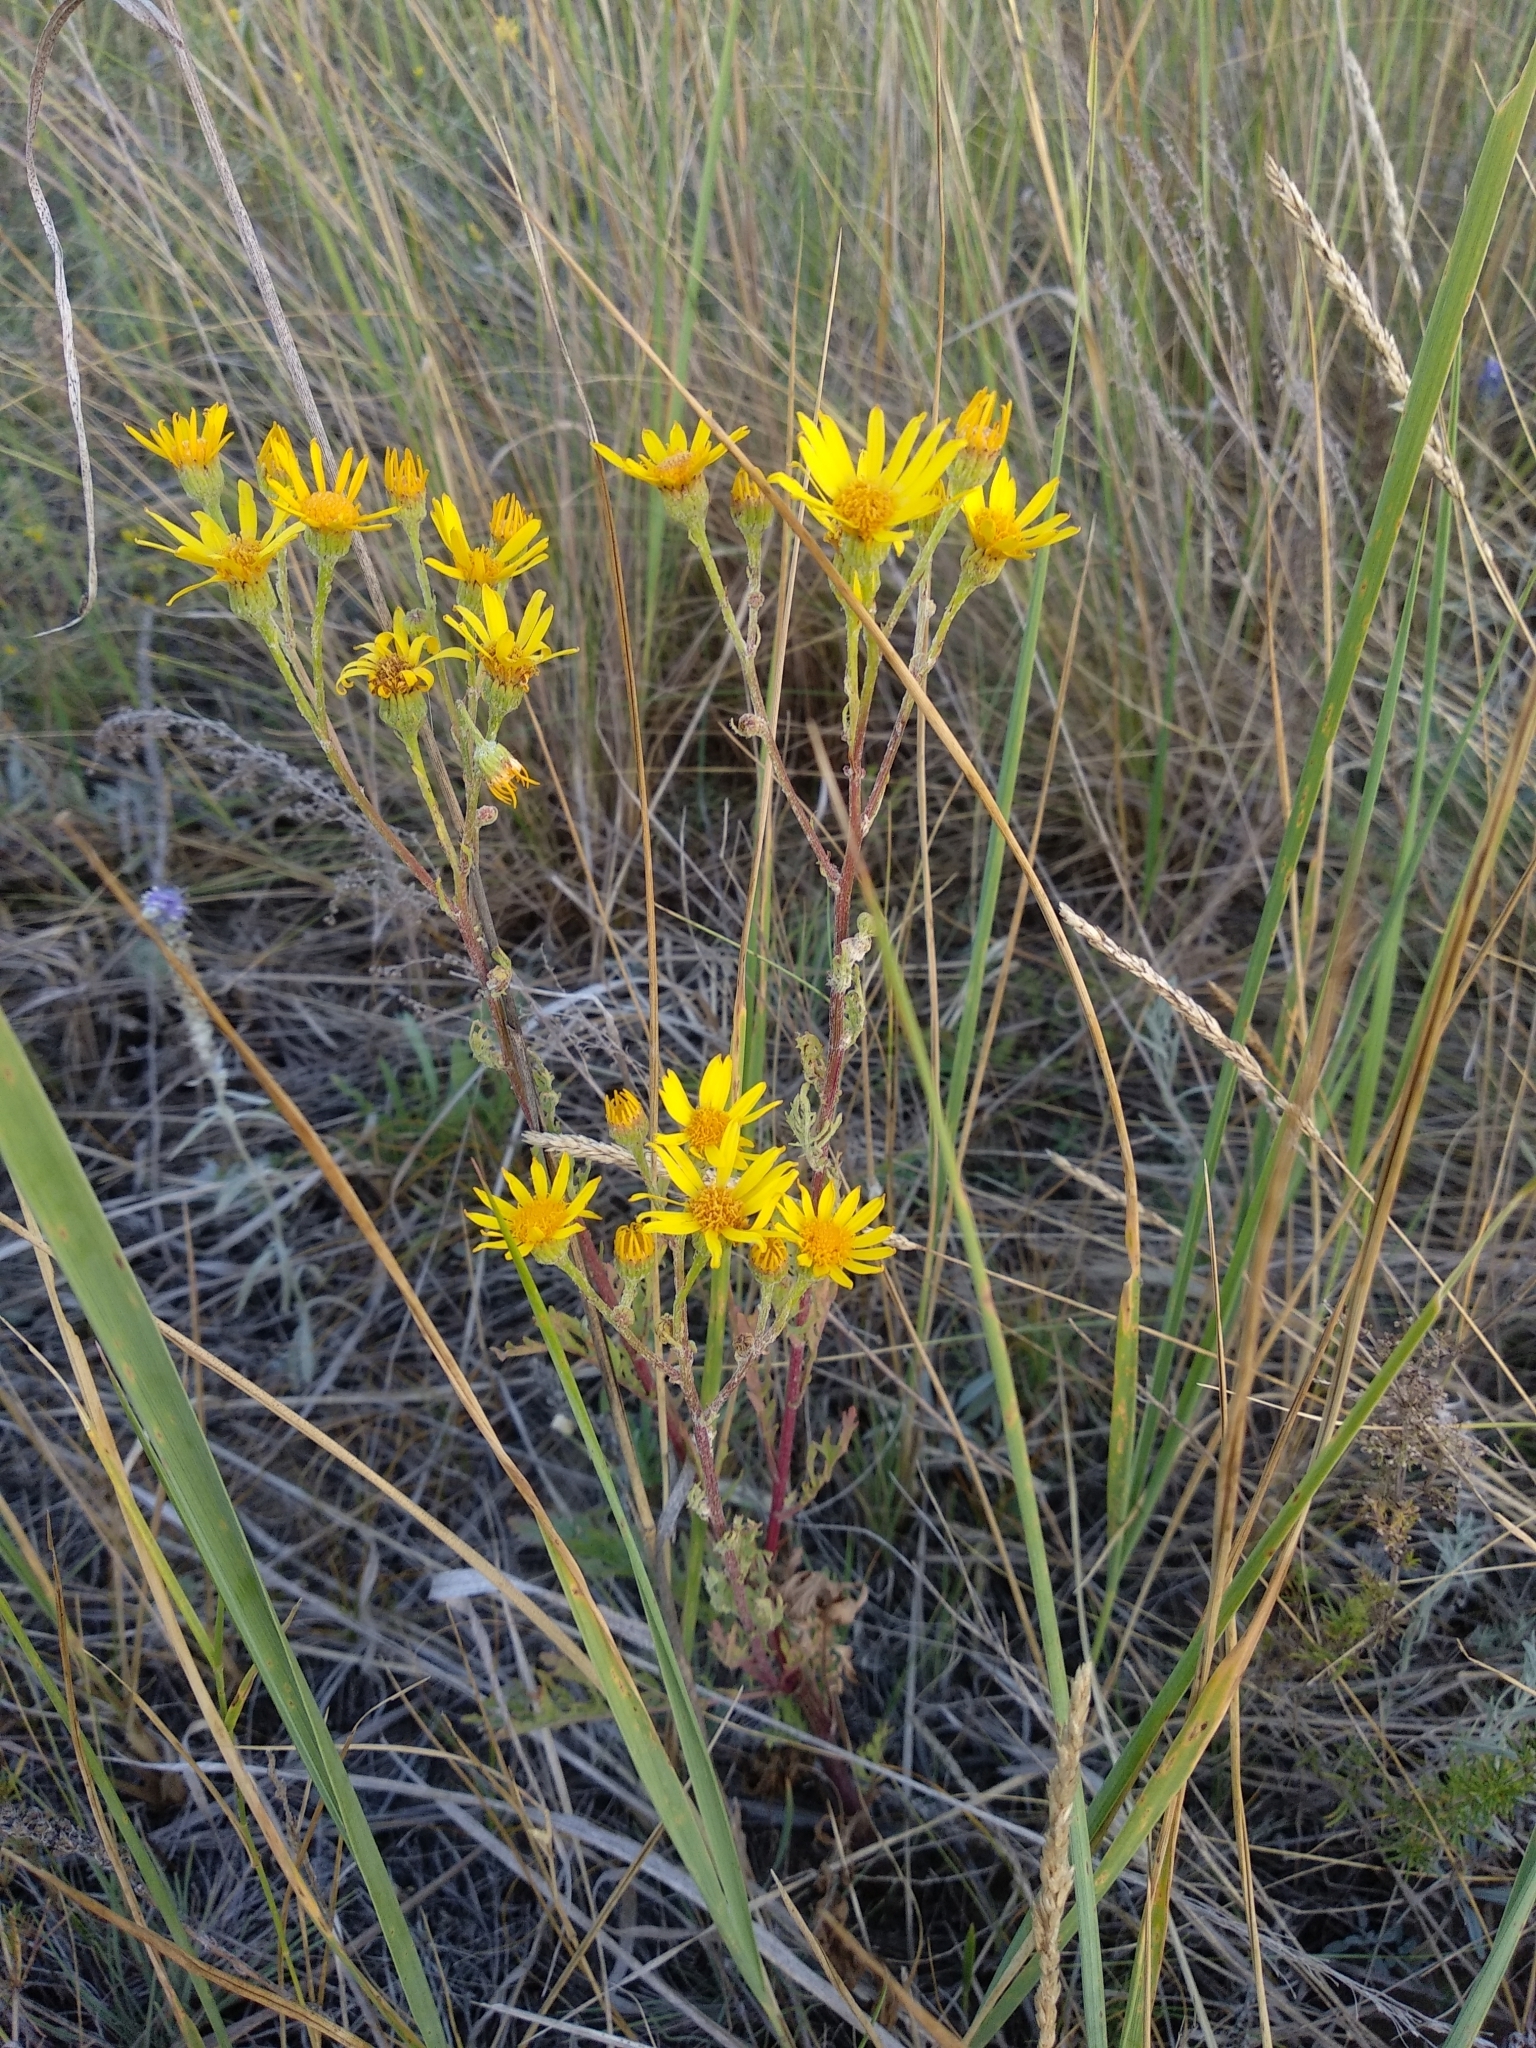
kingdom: Plantae
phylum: Tracheophyta
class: Magnoliopsida
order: Asterales
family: Asteraceae
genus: Jacobaea
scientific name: Jacobaea vulgaris
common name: Stinking willie
